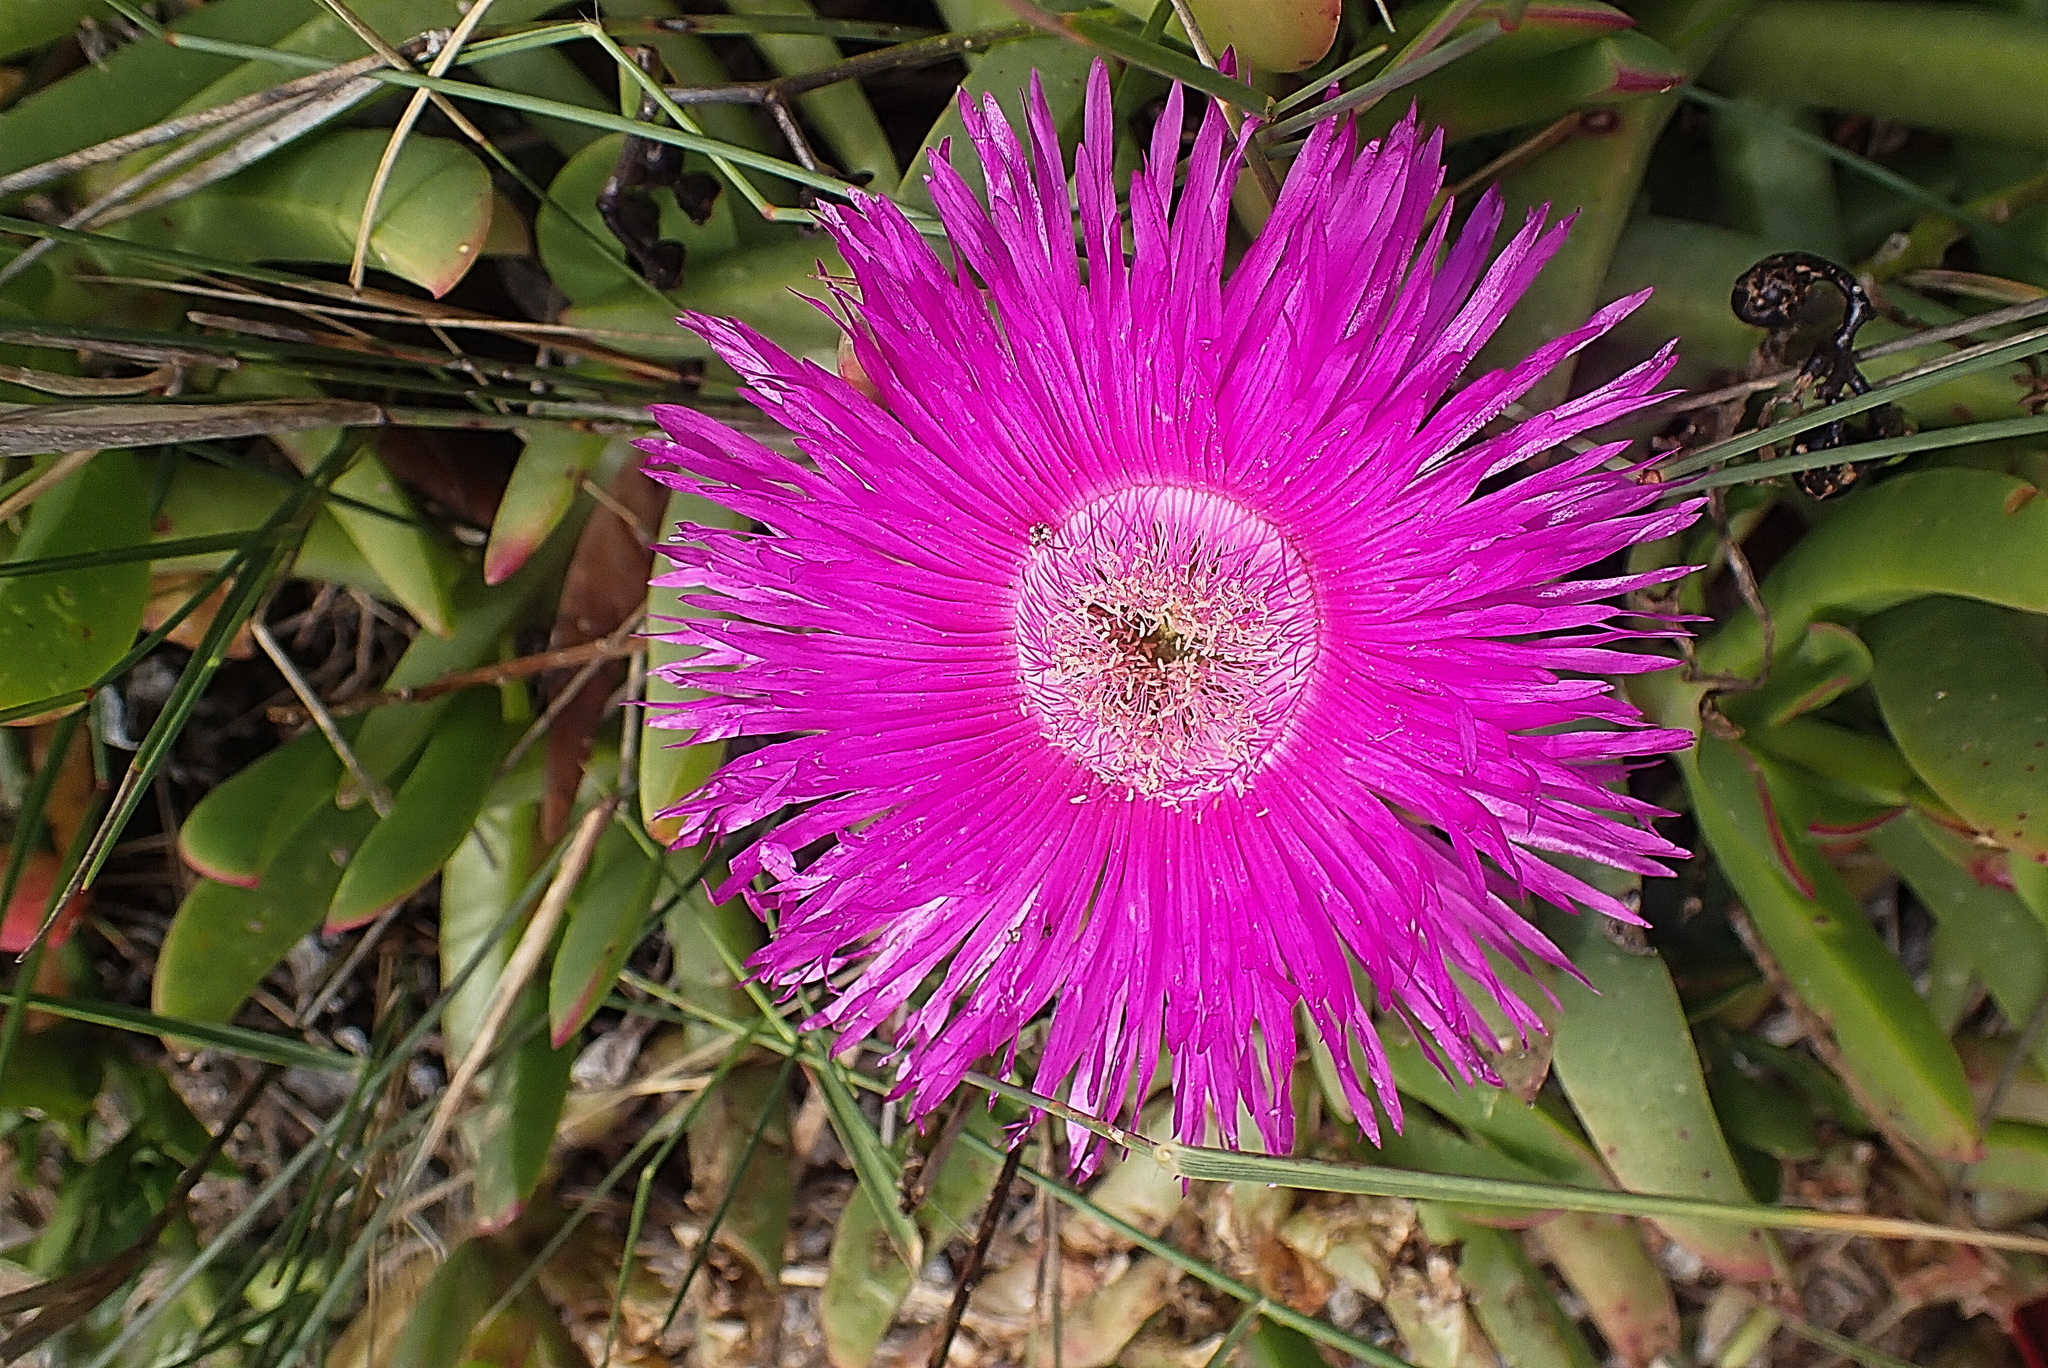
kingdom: Plantae
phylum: Tracheophyta
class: Magnoliopsida
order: Caryophyllales
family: Aizoaceae
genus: Carpobrotus
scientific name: Carpobrotus deliciosus
